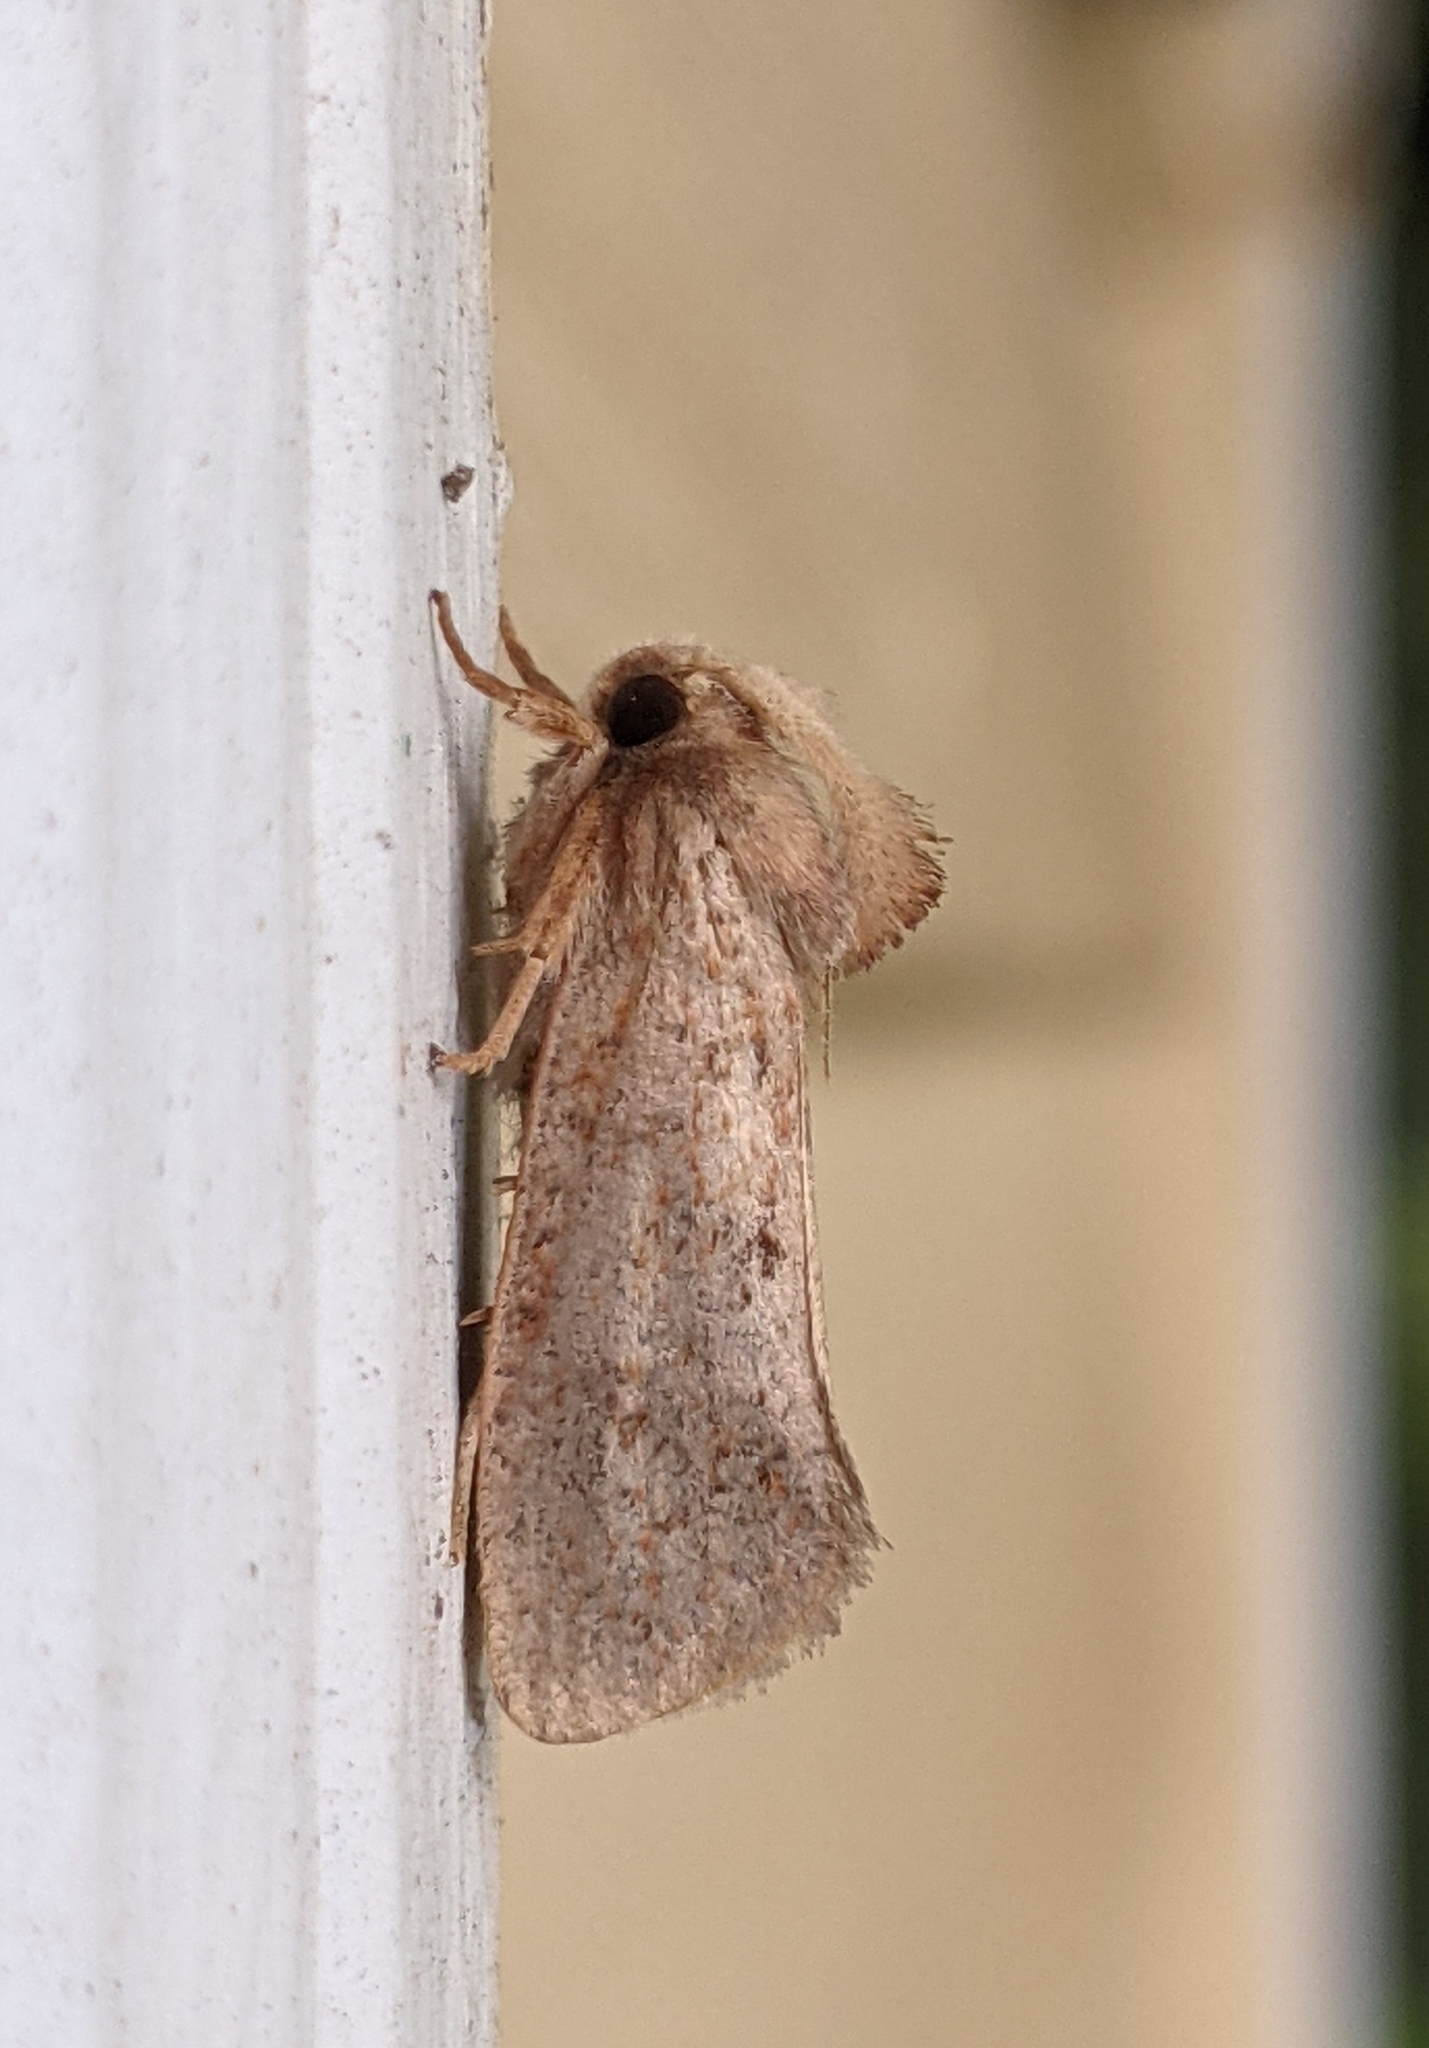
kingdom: Animalia
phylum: Arthropoda
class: Insecta
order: Lepidoptera
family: Tineidae
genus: Acrolophus
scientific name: Acrolophus plumifrontella
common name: Eastern grass tubeworm moth
